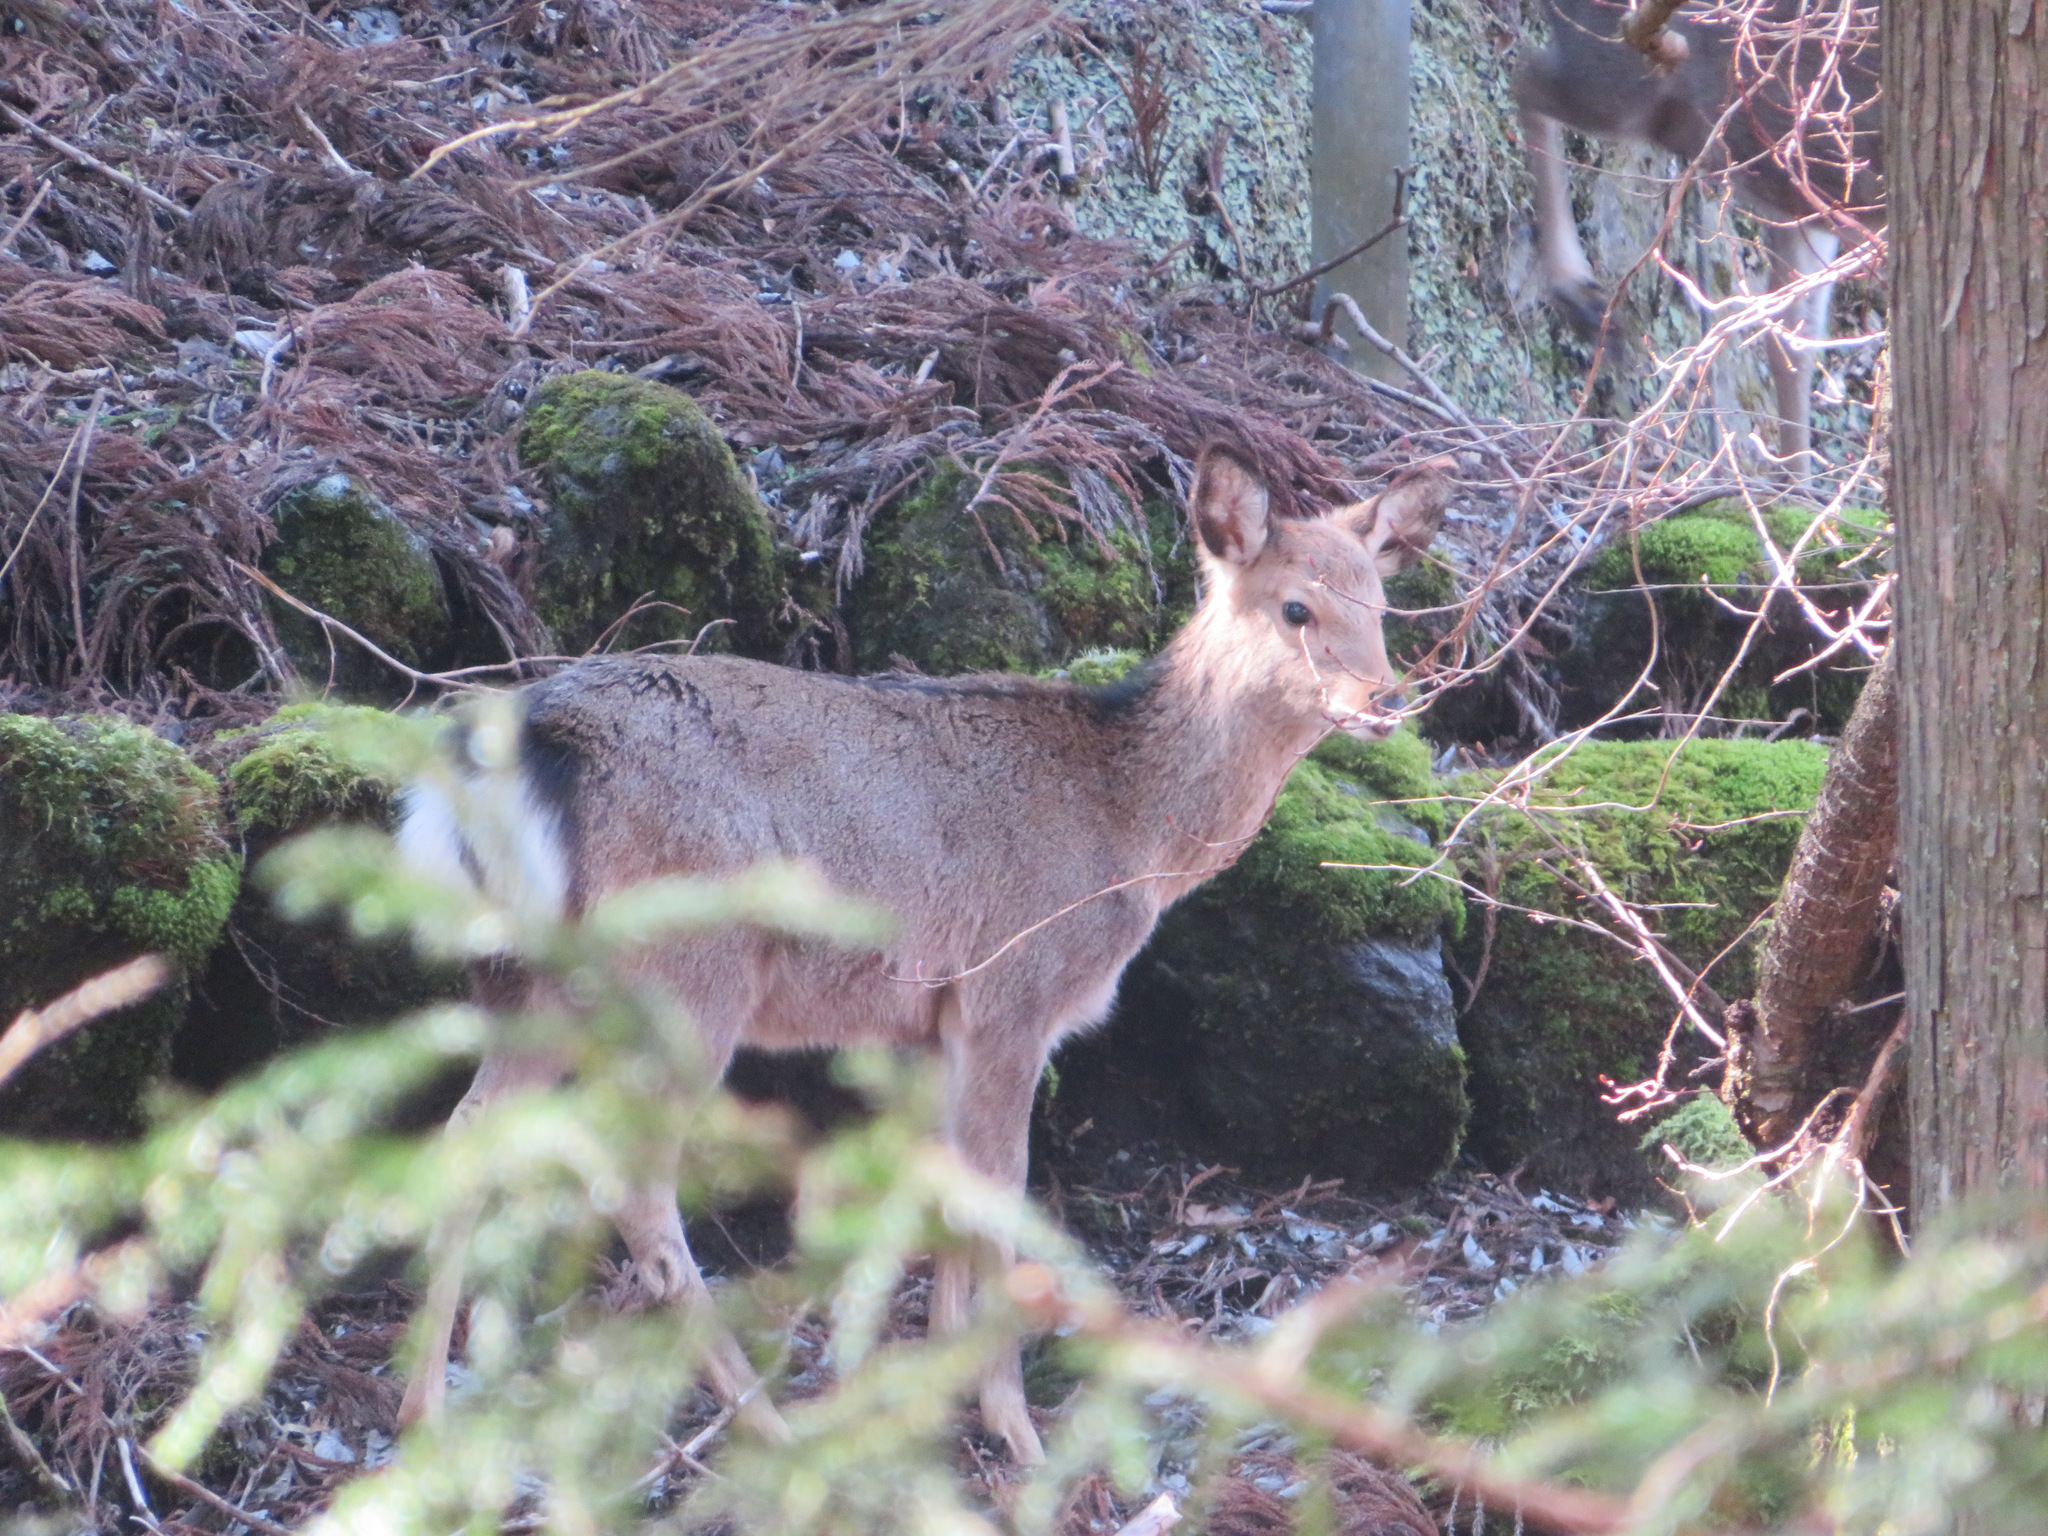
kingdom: Animalia
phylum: Chordata
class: Mammalia
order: Artiodactyla
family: Cervidae
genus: Cervus
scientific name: Cervus nippon
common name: Sika deer
